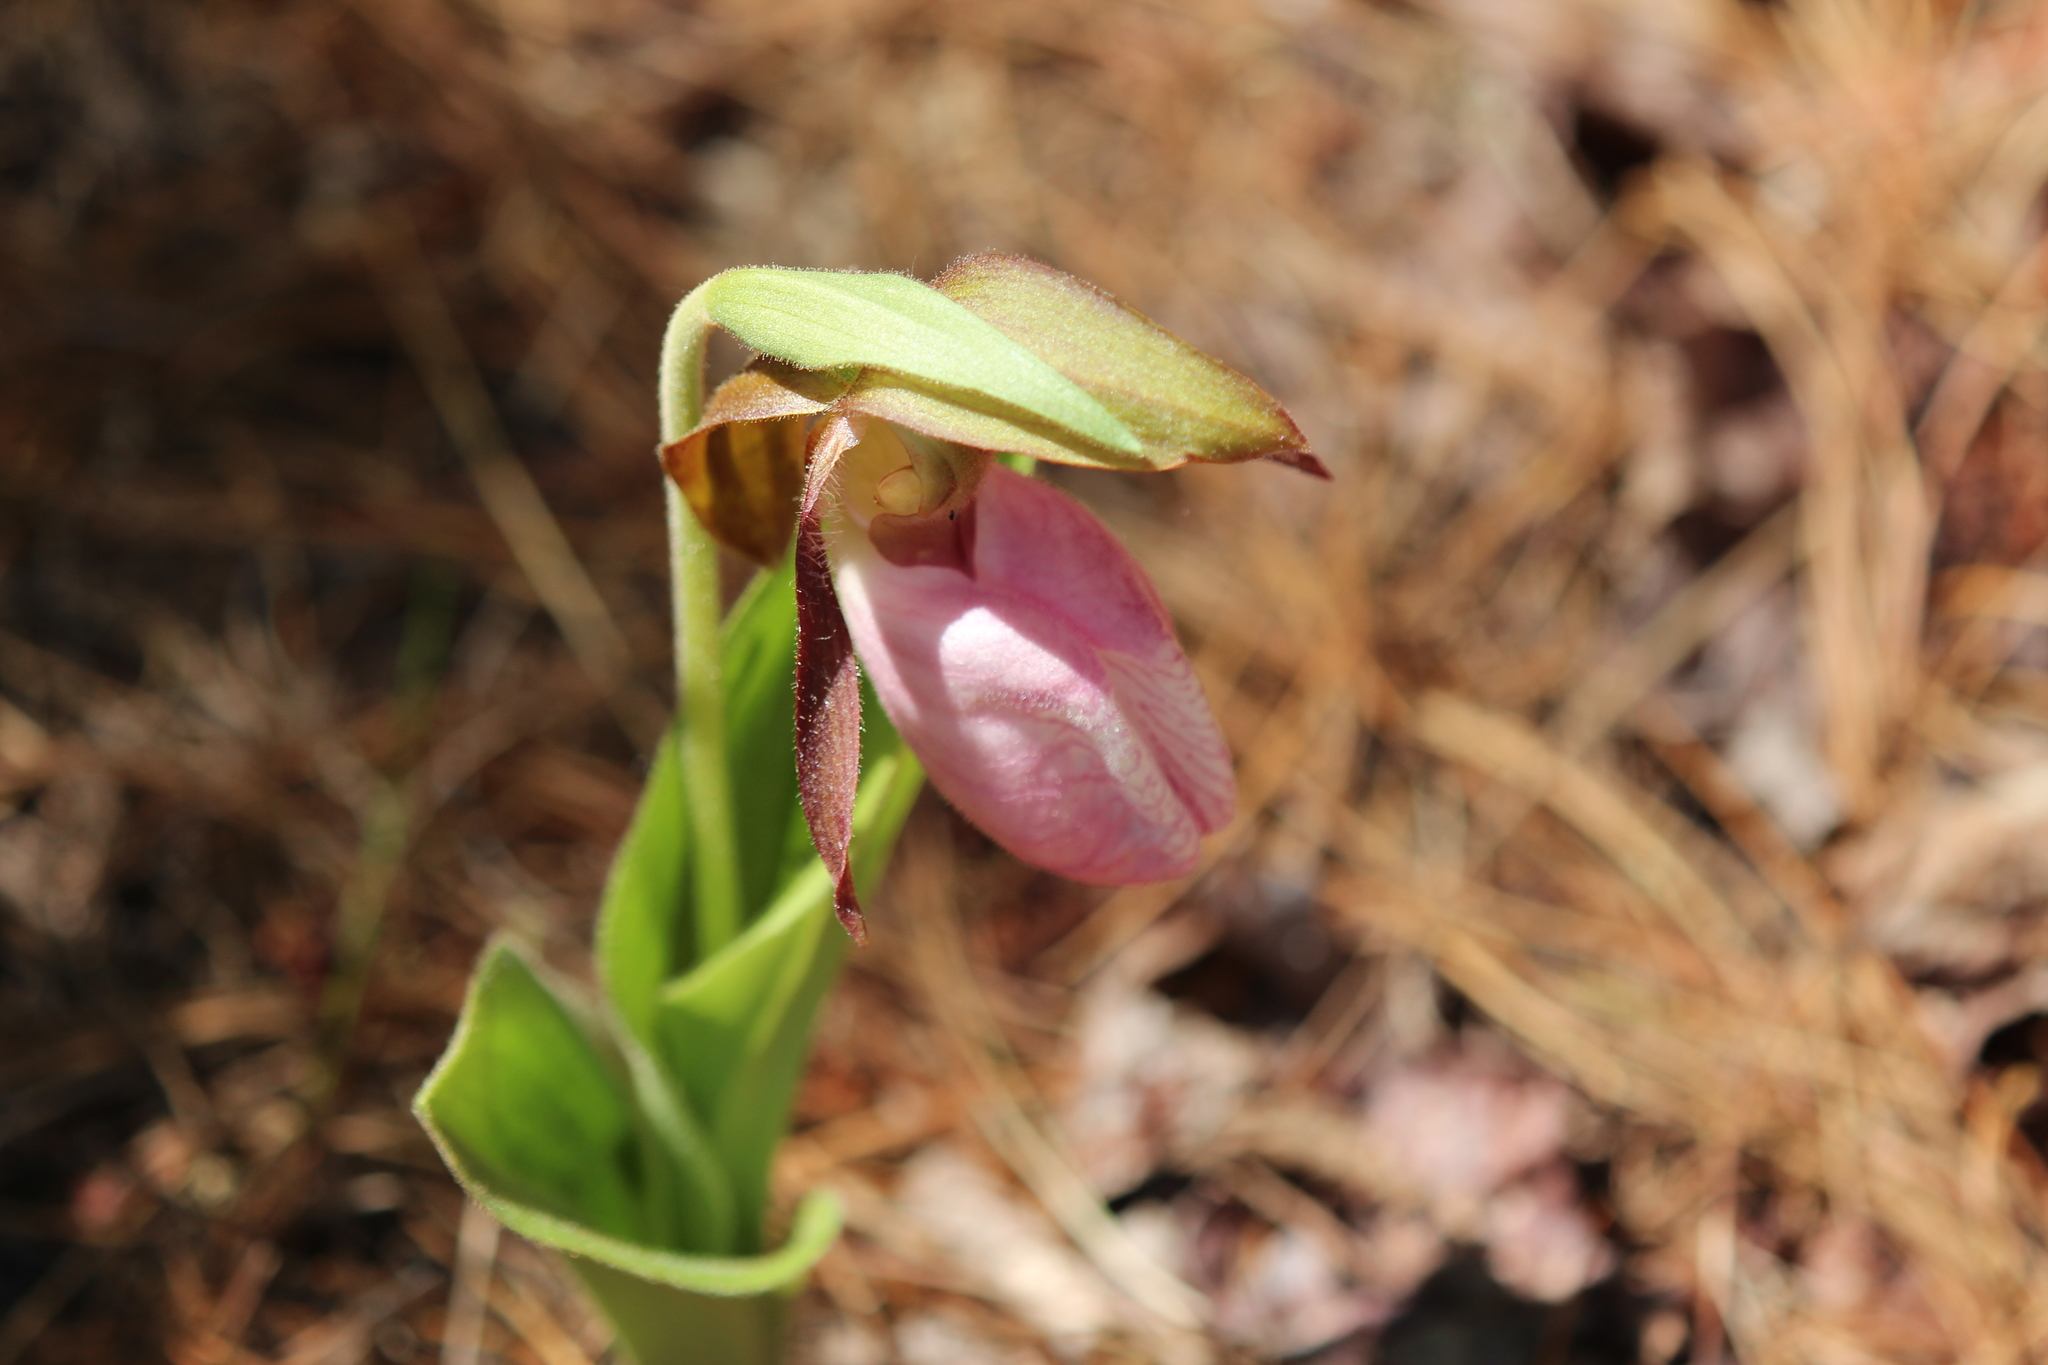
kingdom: Plantae
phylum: Tracheophyta
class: Liliopsida
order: Asparagales
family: Orchidaceae
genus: Cypripedium
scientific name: Cypripedium acaule
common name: Pink lady's-slipper
